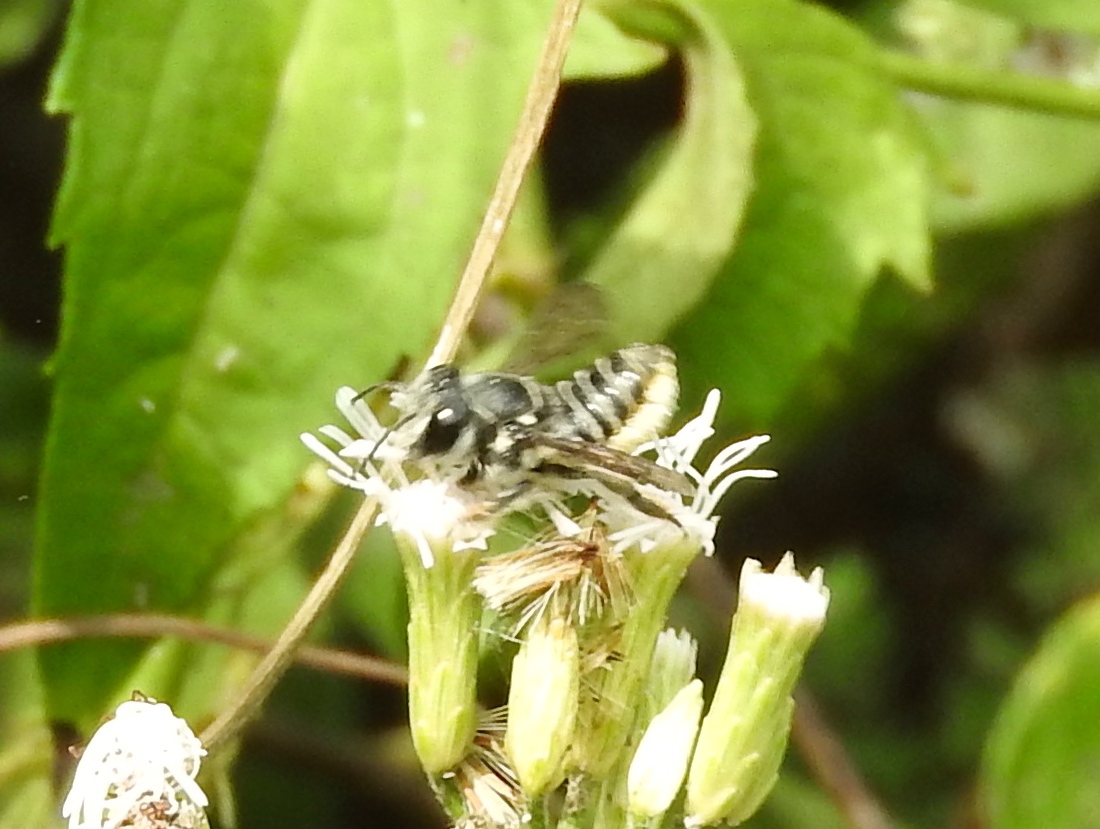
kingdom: Animalia
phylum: Arthropoda
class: Insecta
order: Hymenoptera
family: Megachilidae
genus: Megachile
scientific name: Megachile
